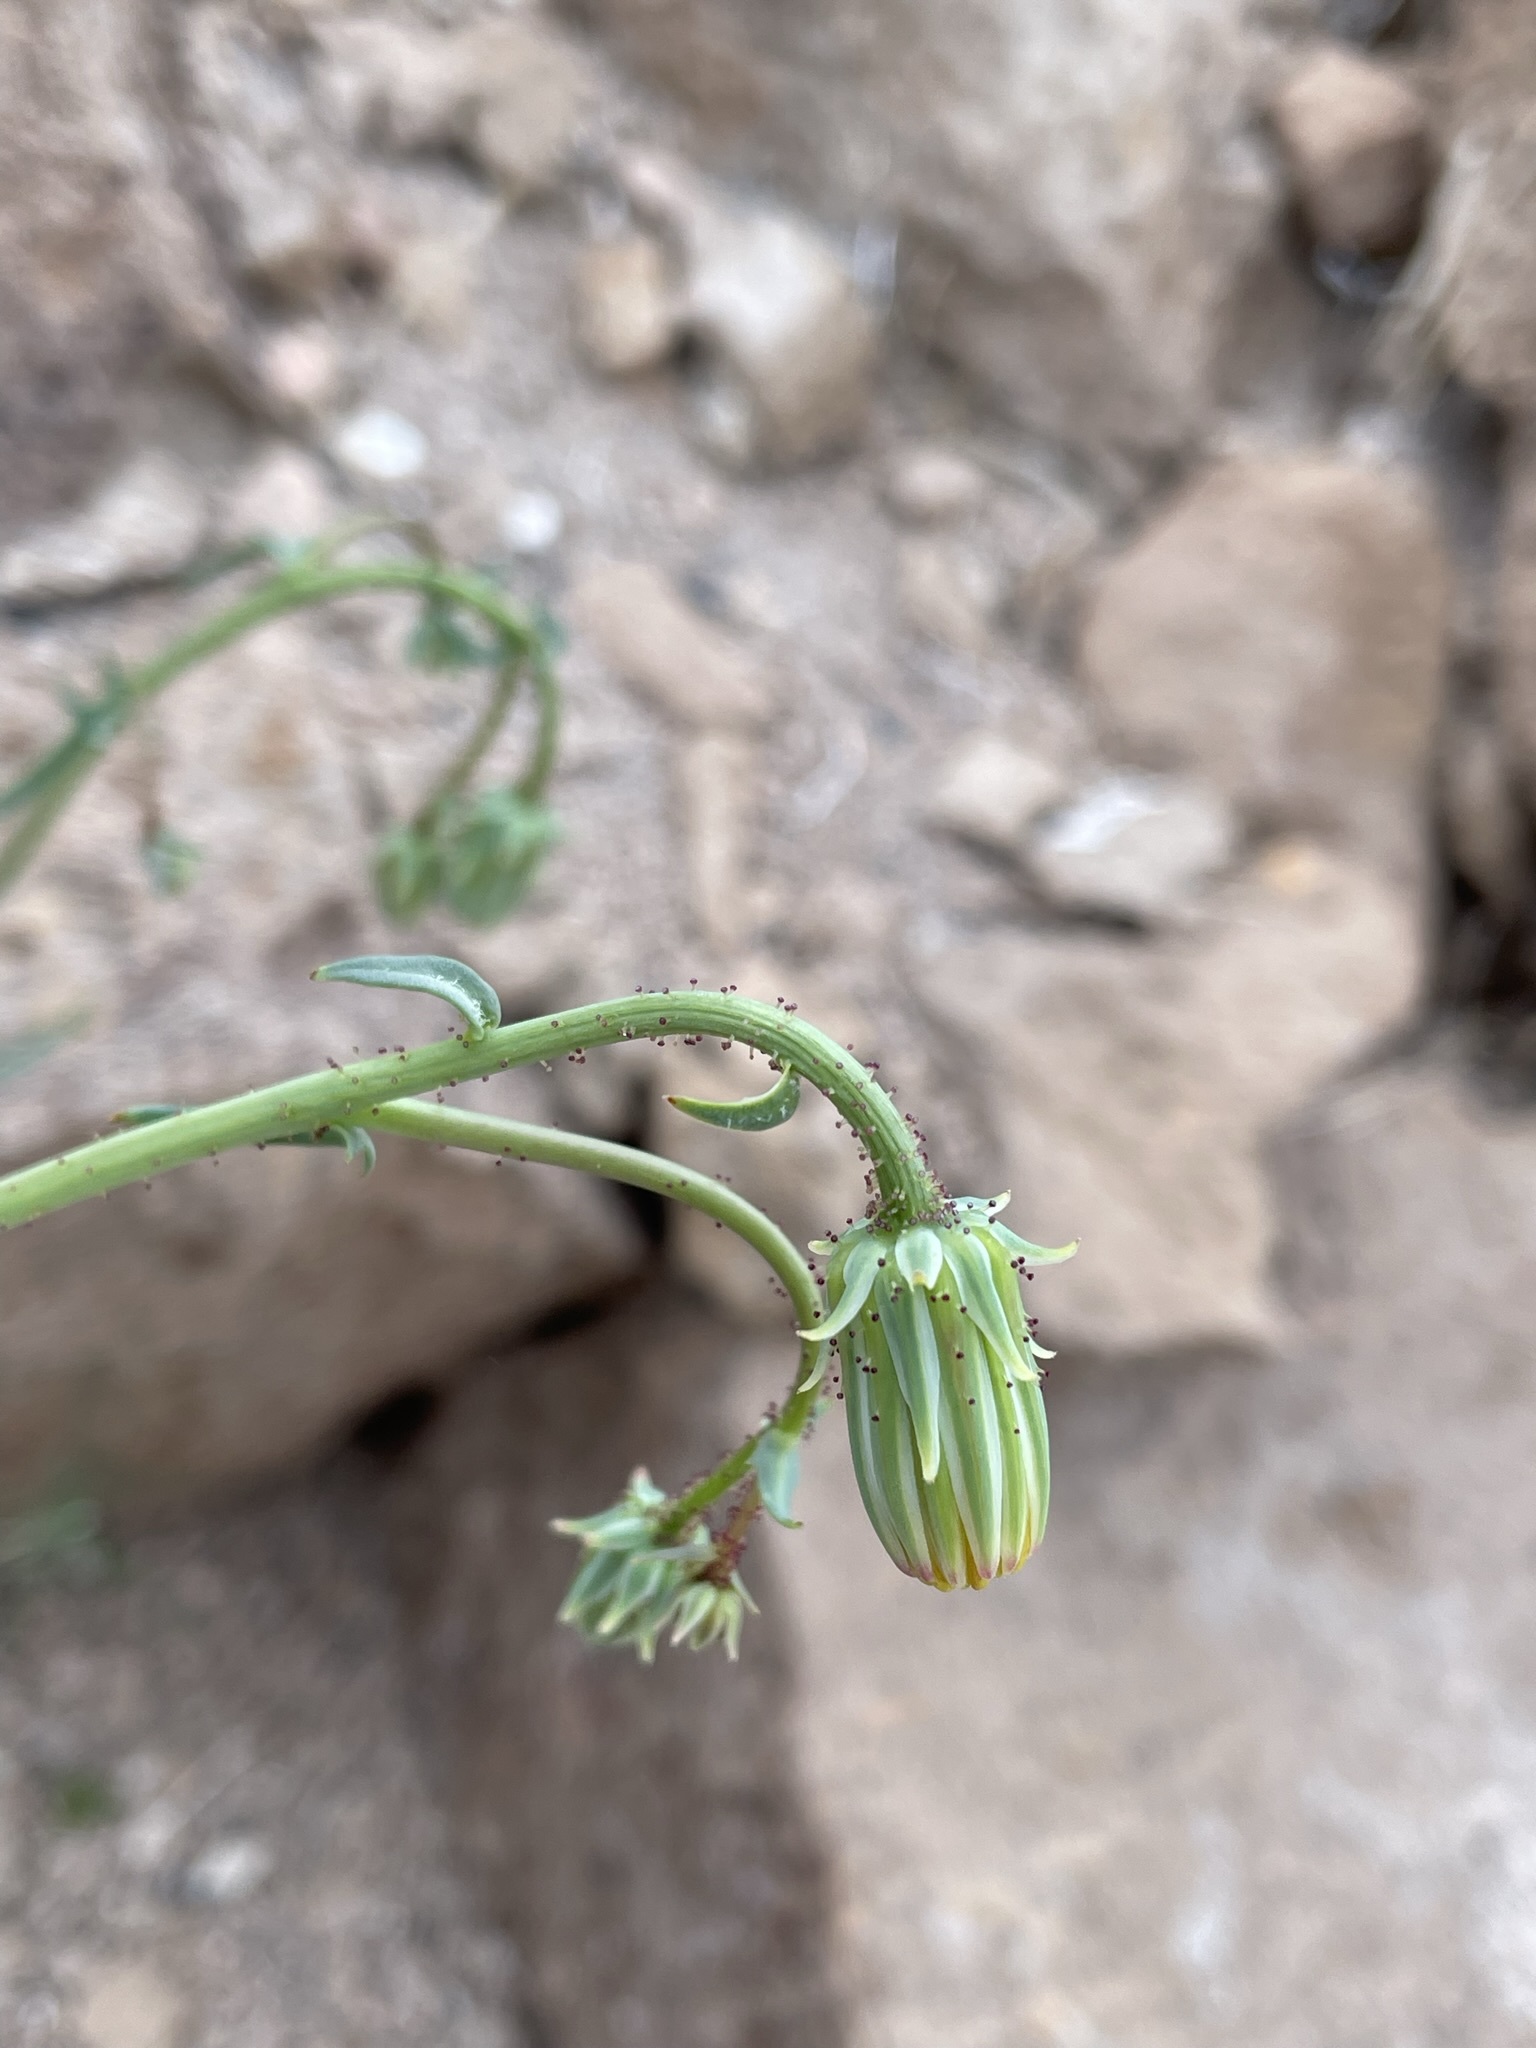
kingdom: Plantae
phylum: Tracheophyta
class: Magnoliopsida
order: Asterales
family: Asteraceae
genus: Calycoseris
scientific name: Calycoseris parryi
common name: Yellow tackstem
